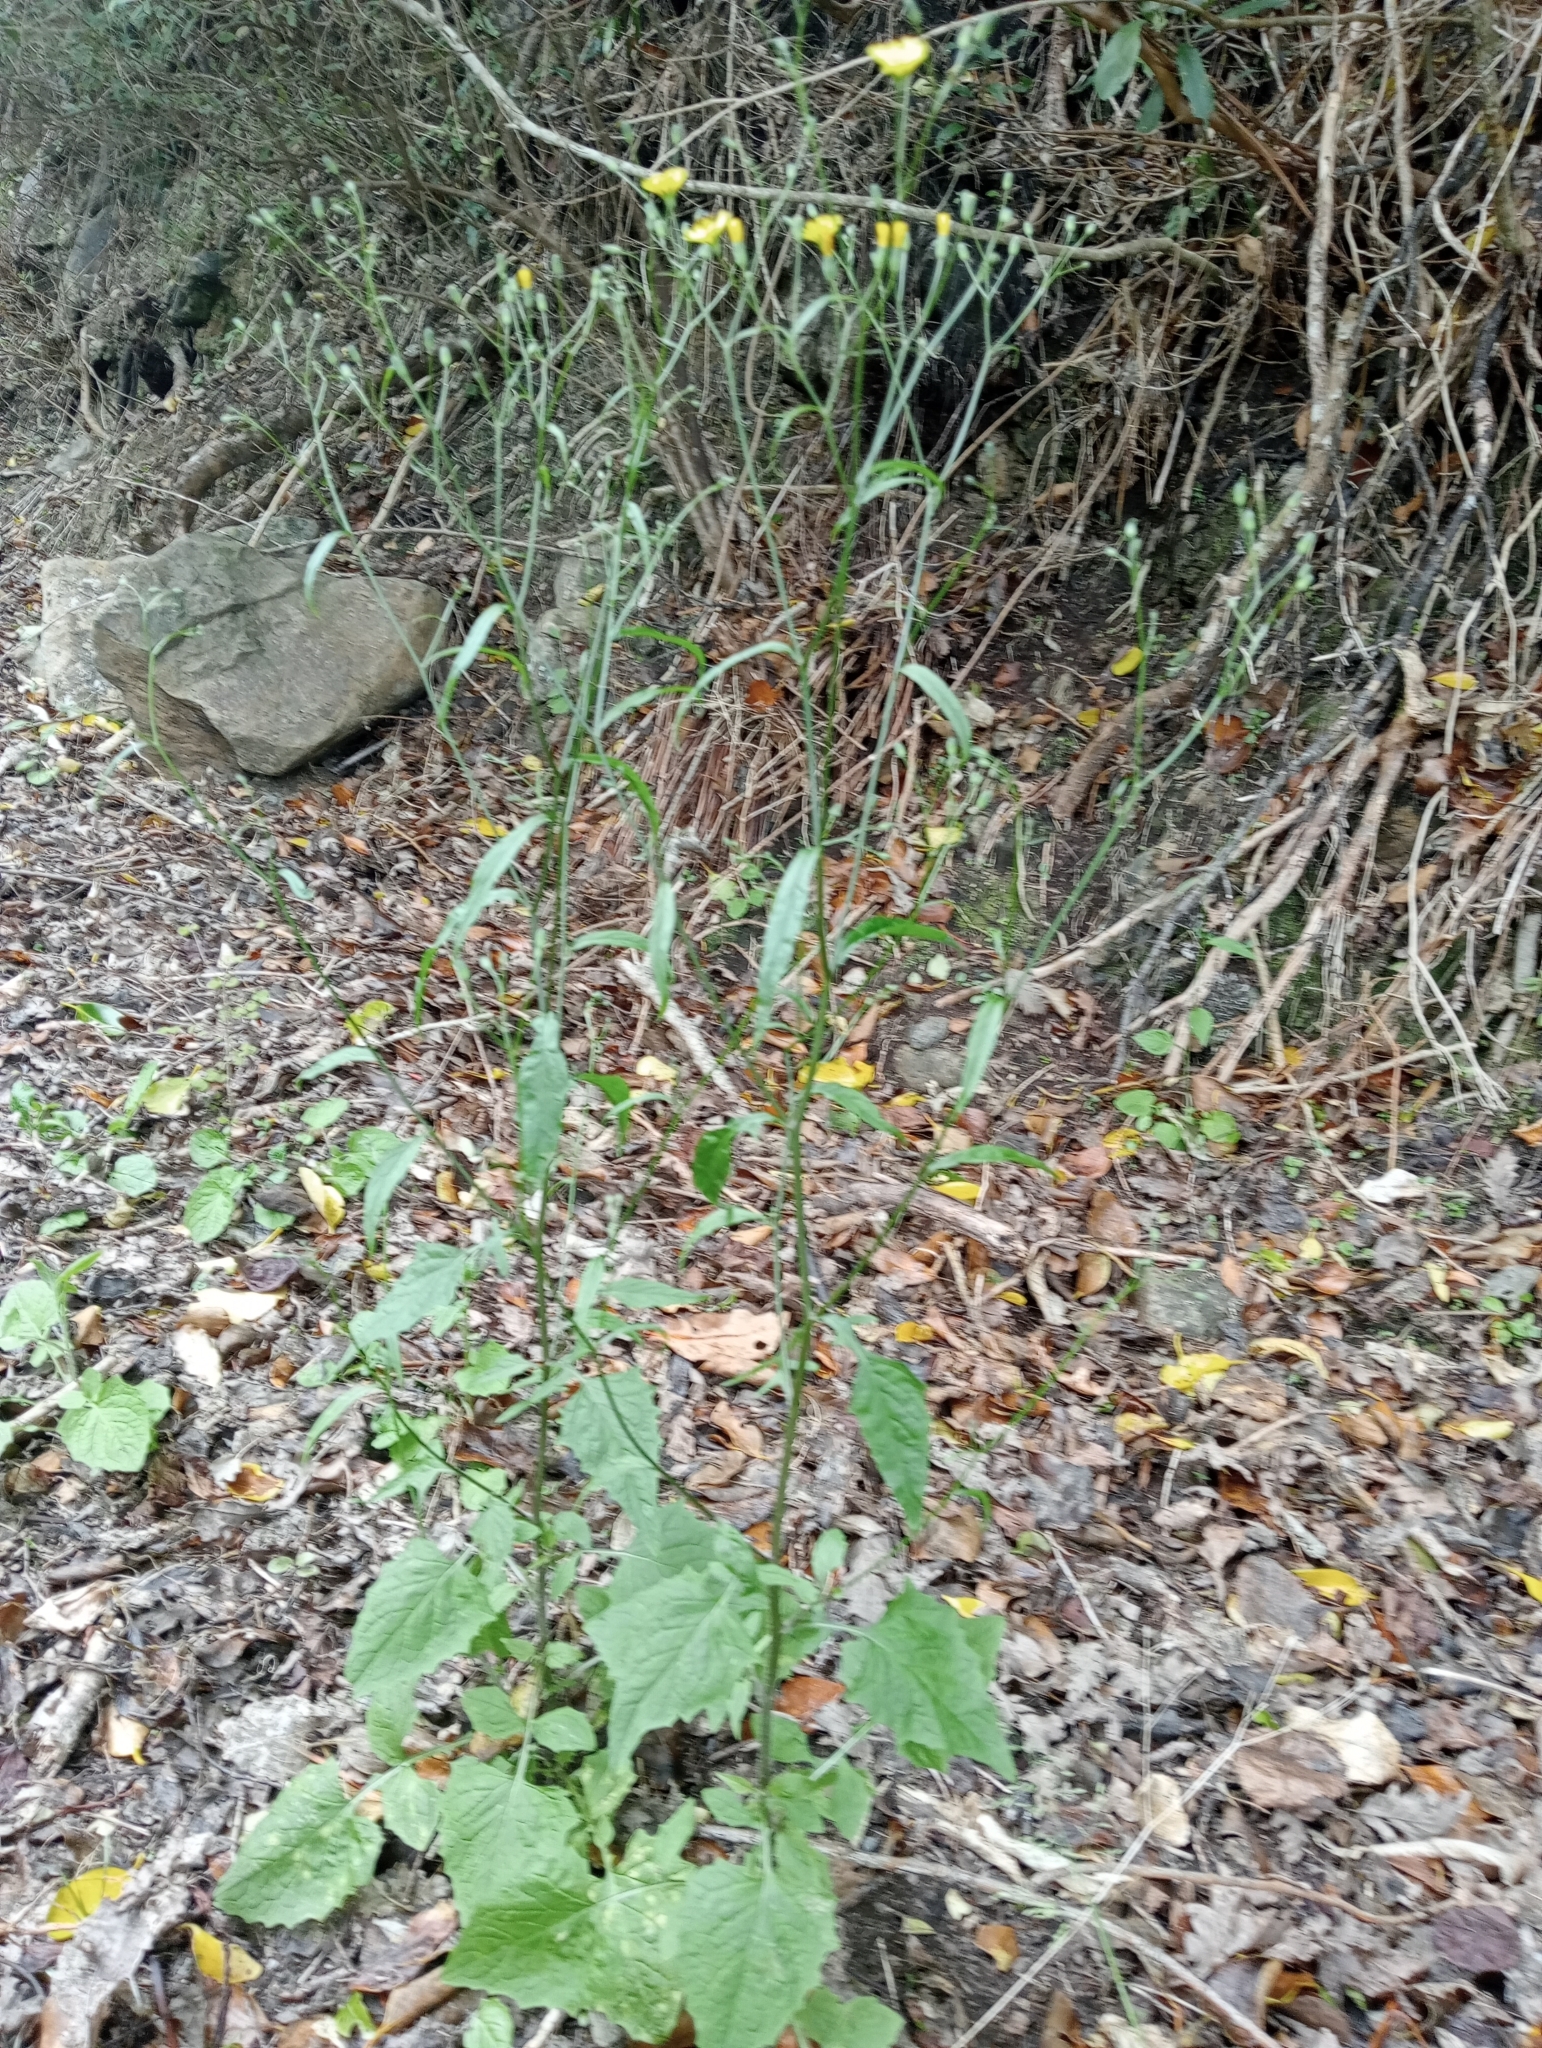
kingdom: Plantae
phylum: Tracheophyta
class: Magnoliopsida
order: Asterales
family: Asteraceae
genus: Lapsana
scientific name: Lapsana communis
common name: Nipplewort
